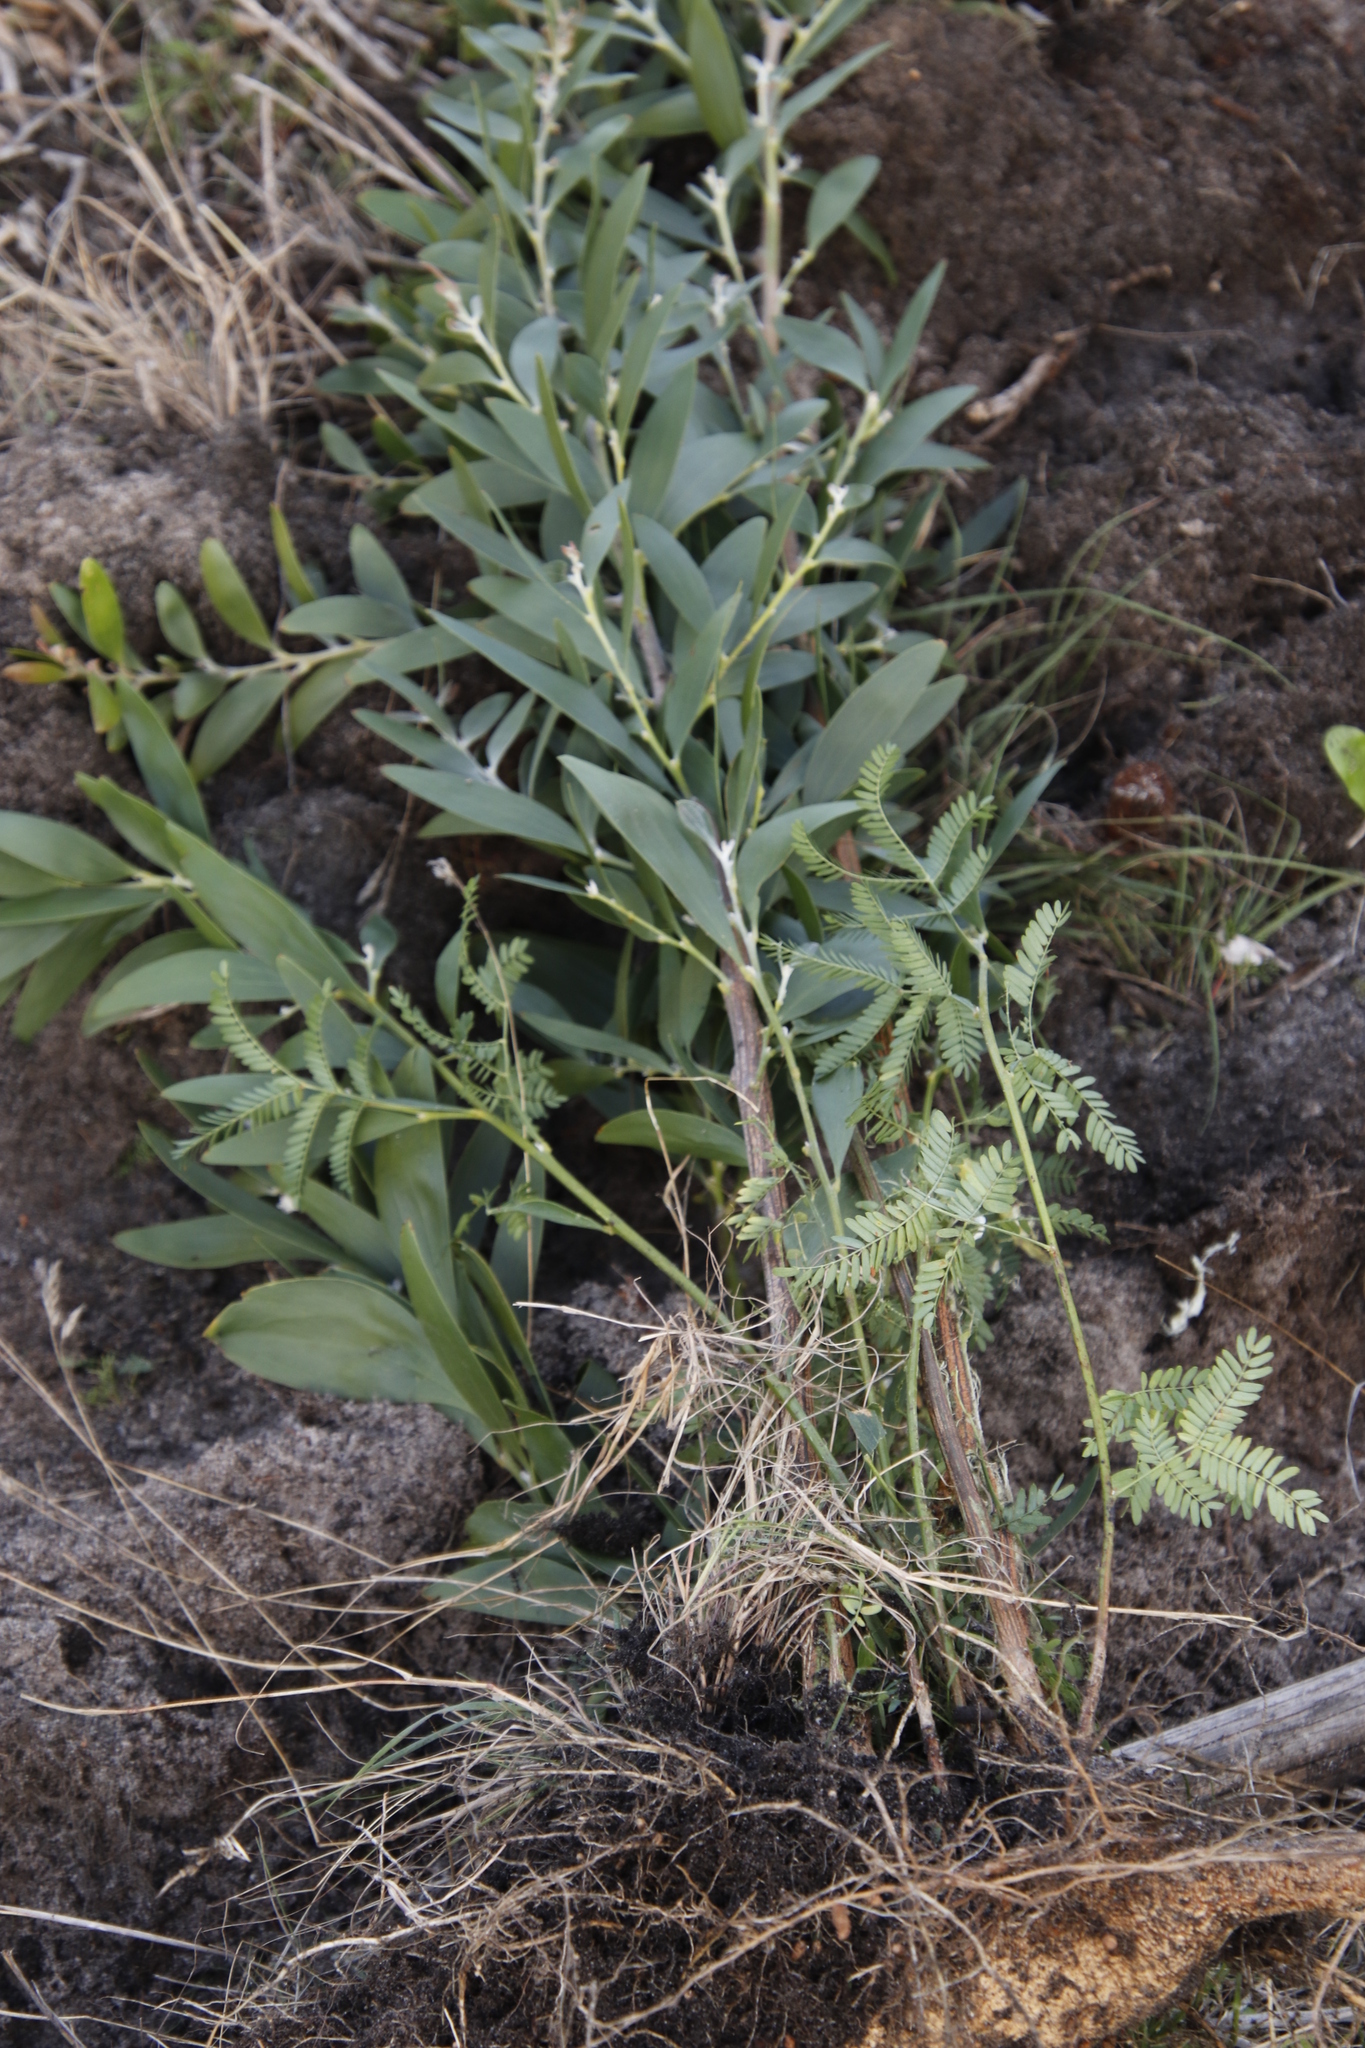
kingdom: Plantae
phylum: Tracheophyta
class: Magnoliopsida
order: Fabales
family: Fabaceae
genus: Acacia
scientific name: Acacia melanoxylon
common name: Blackwood
